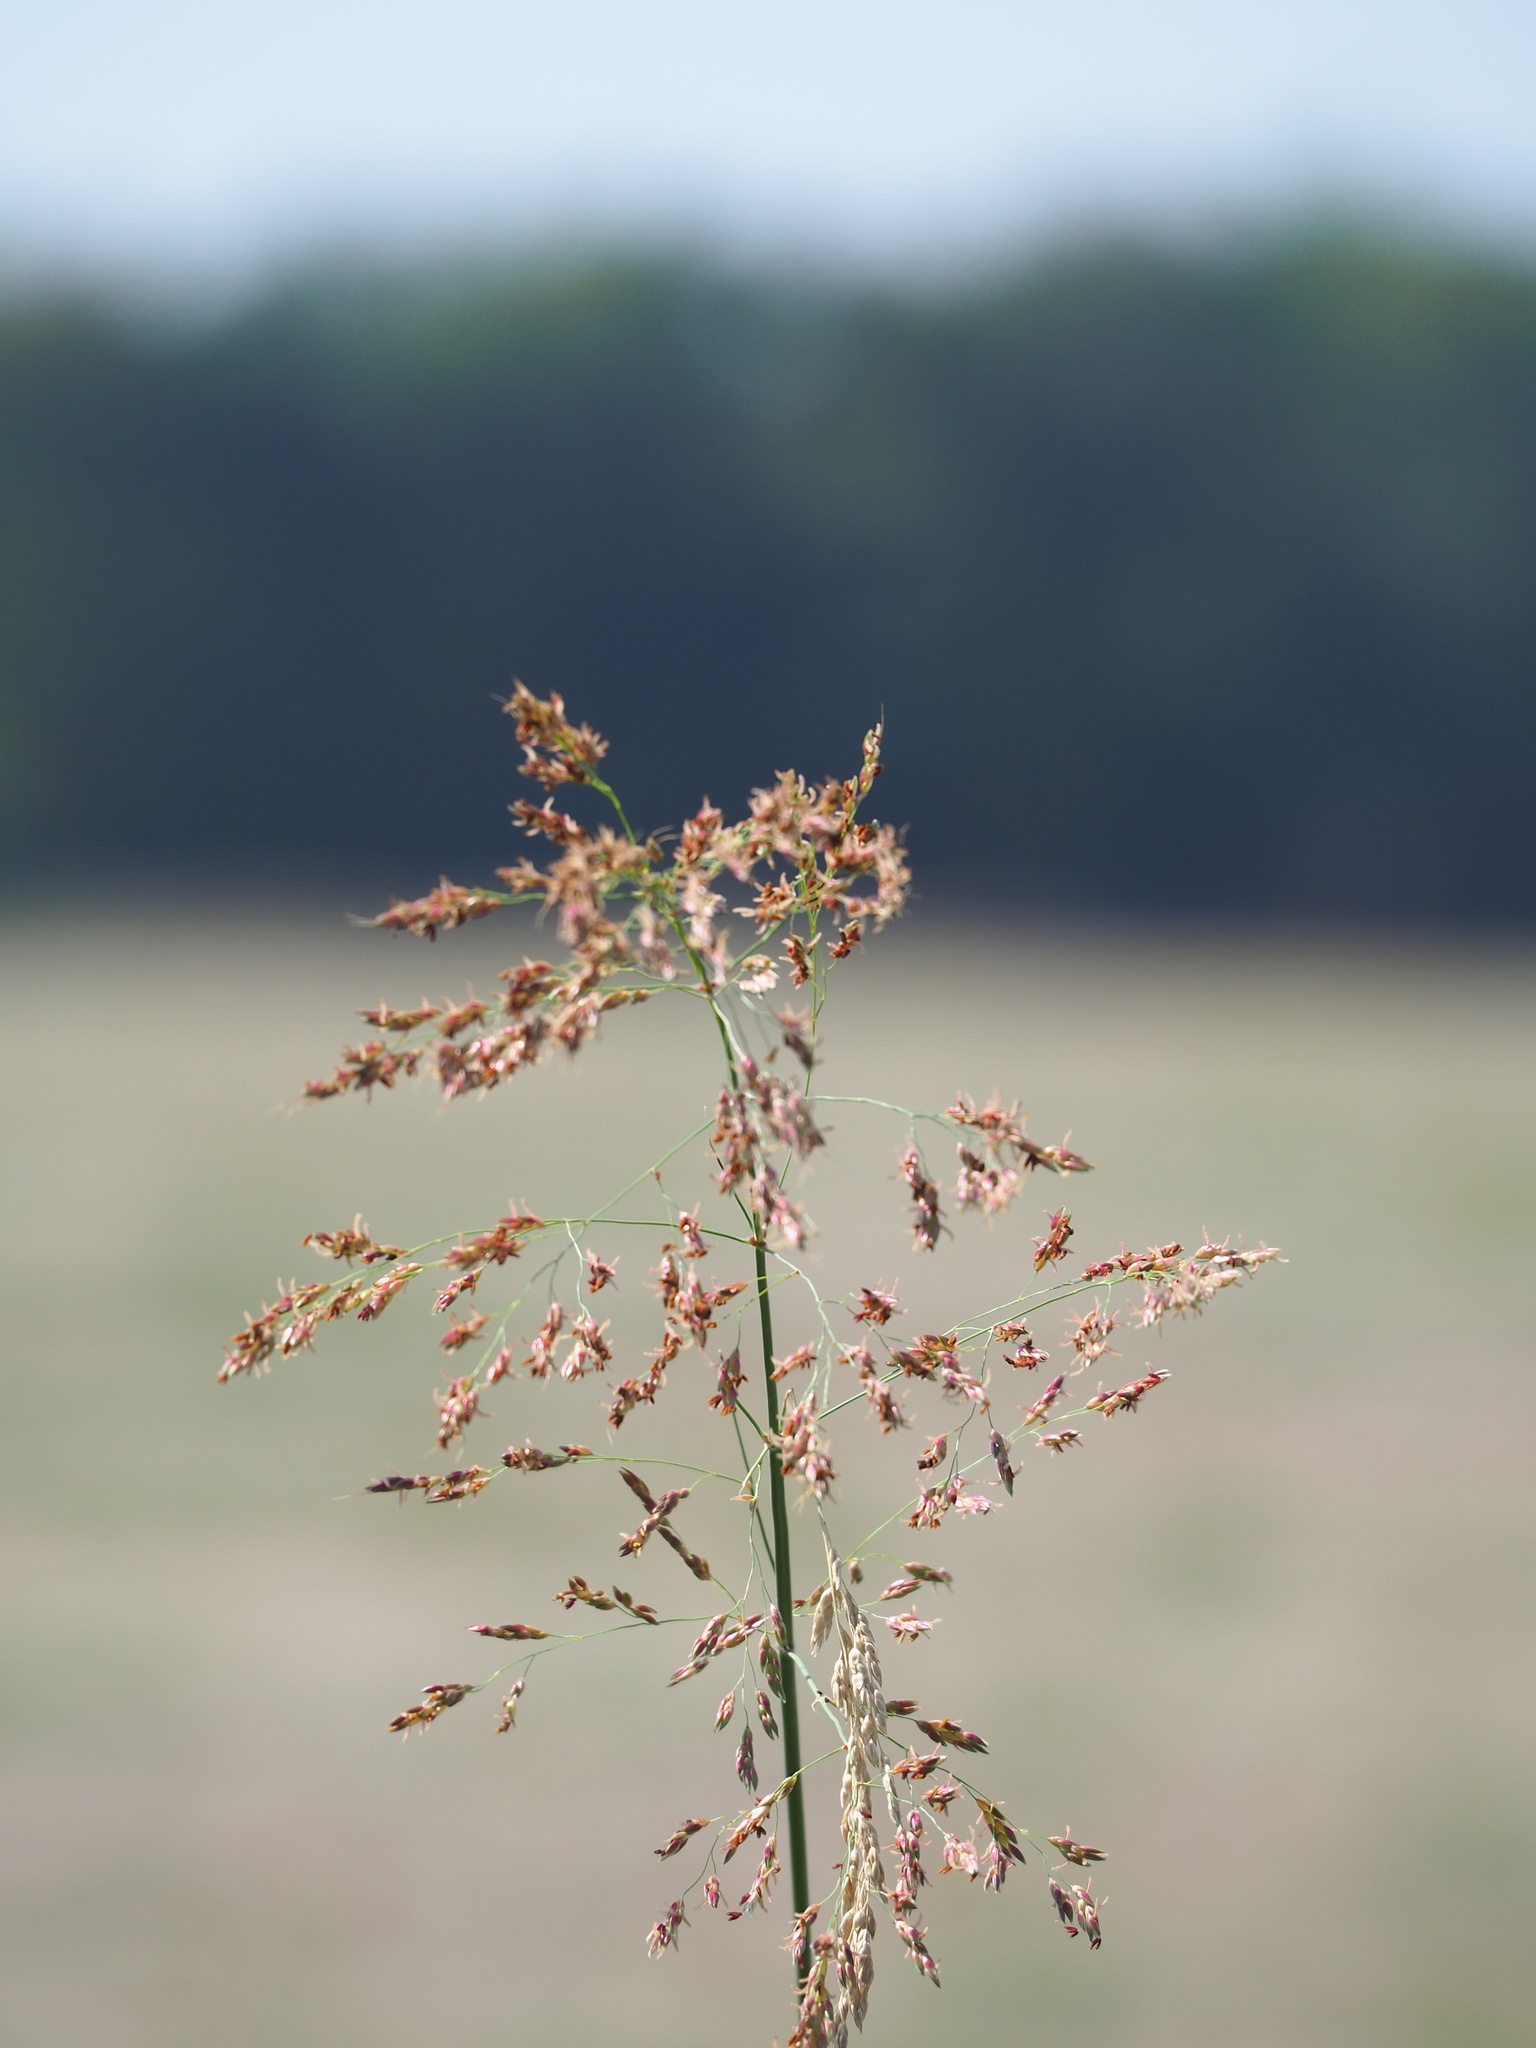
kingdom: Plantae
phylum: Tracheophyta
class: Liliopsida
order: Poales
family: Poaceae
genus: Sorghum
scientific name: Sorghum halepense
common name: Johnson-grass
